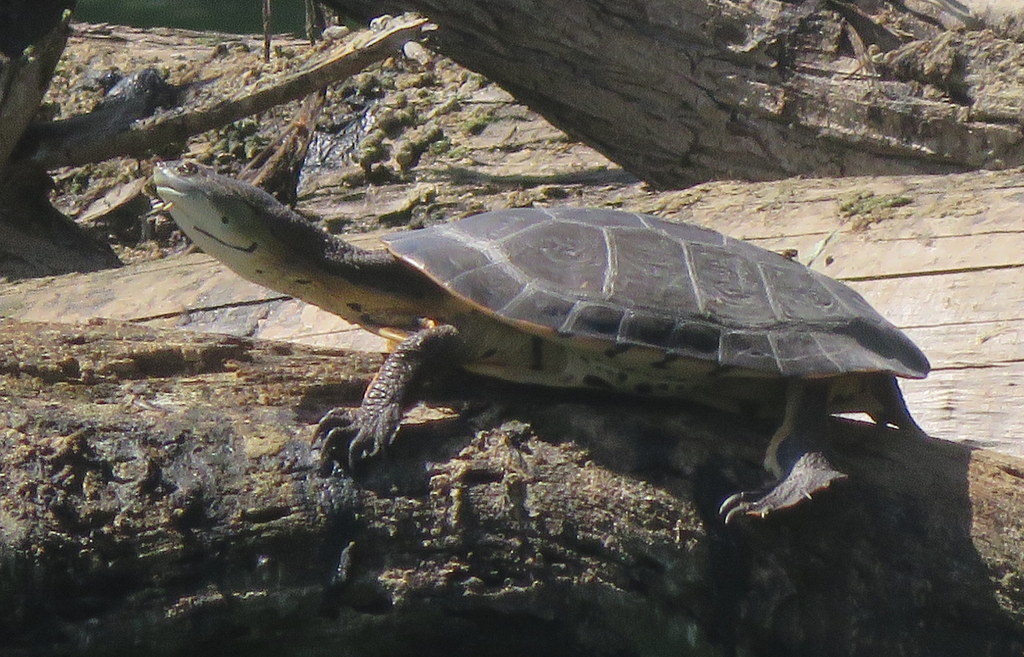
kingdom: Animalia
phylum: Chordata
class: Testudines
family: Chelidae
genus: Phrynops
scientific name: Phrynops hilarii
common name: Side-necked turtle of saint hillaire
